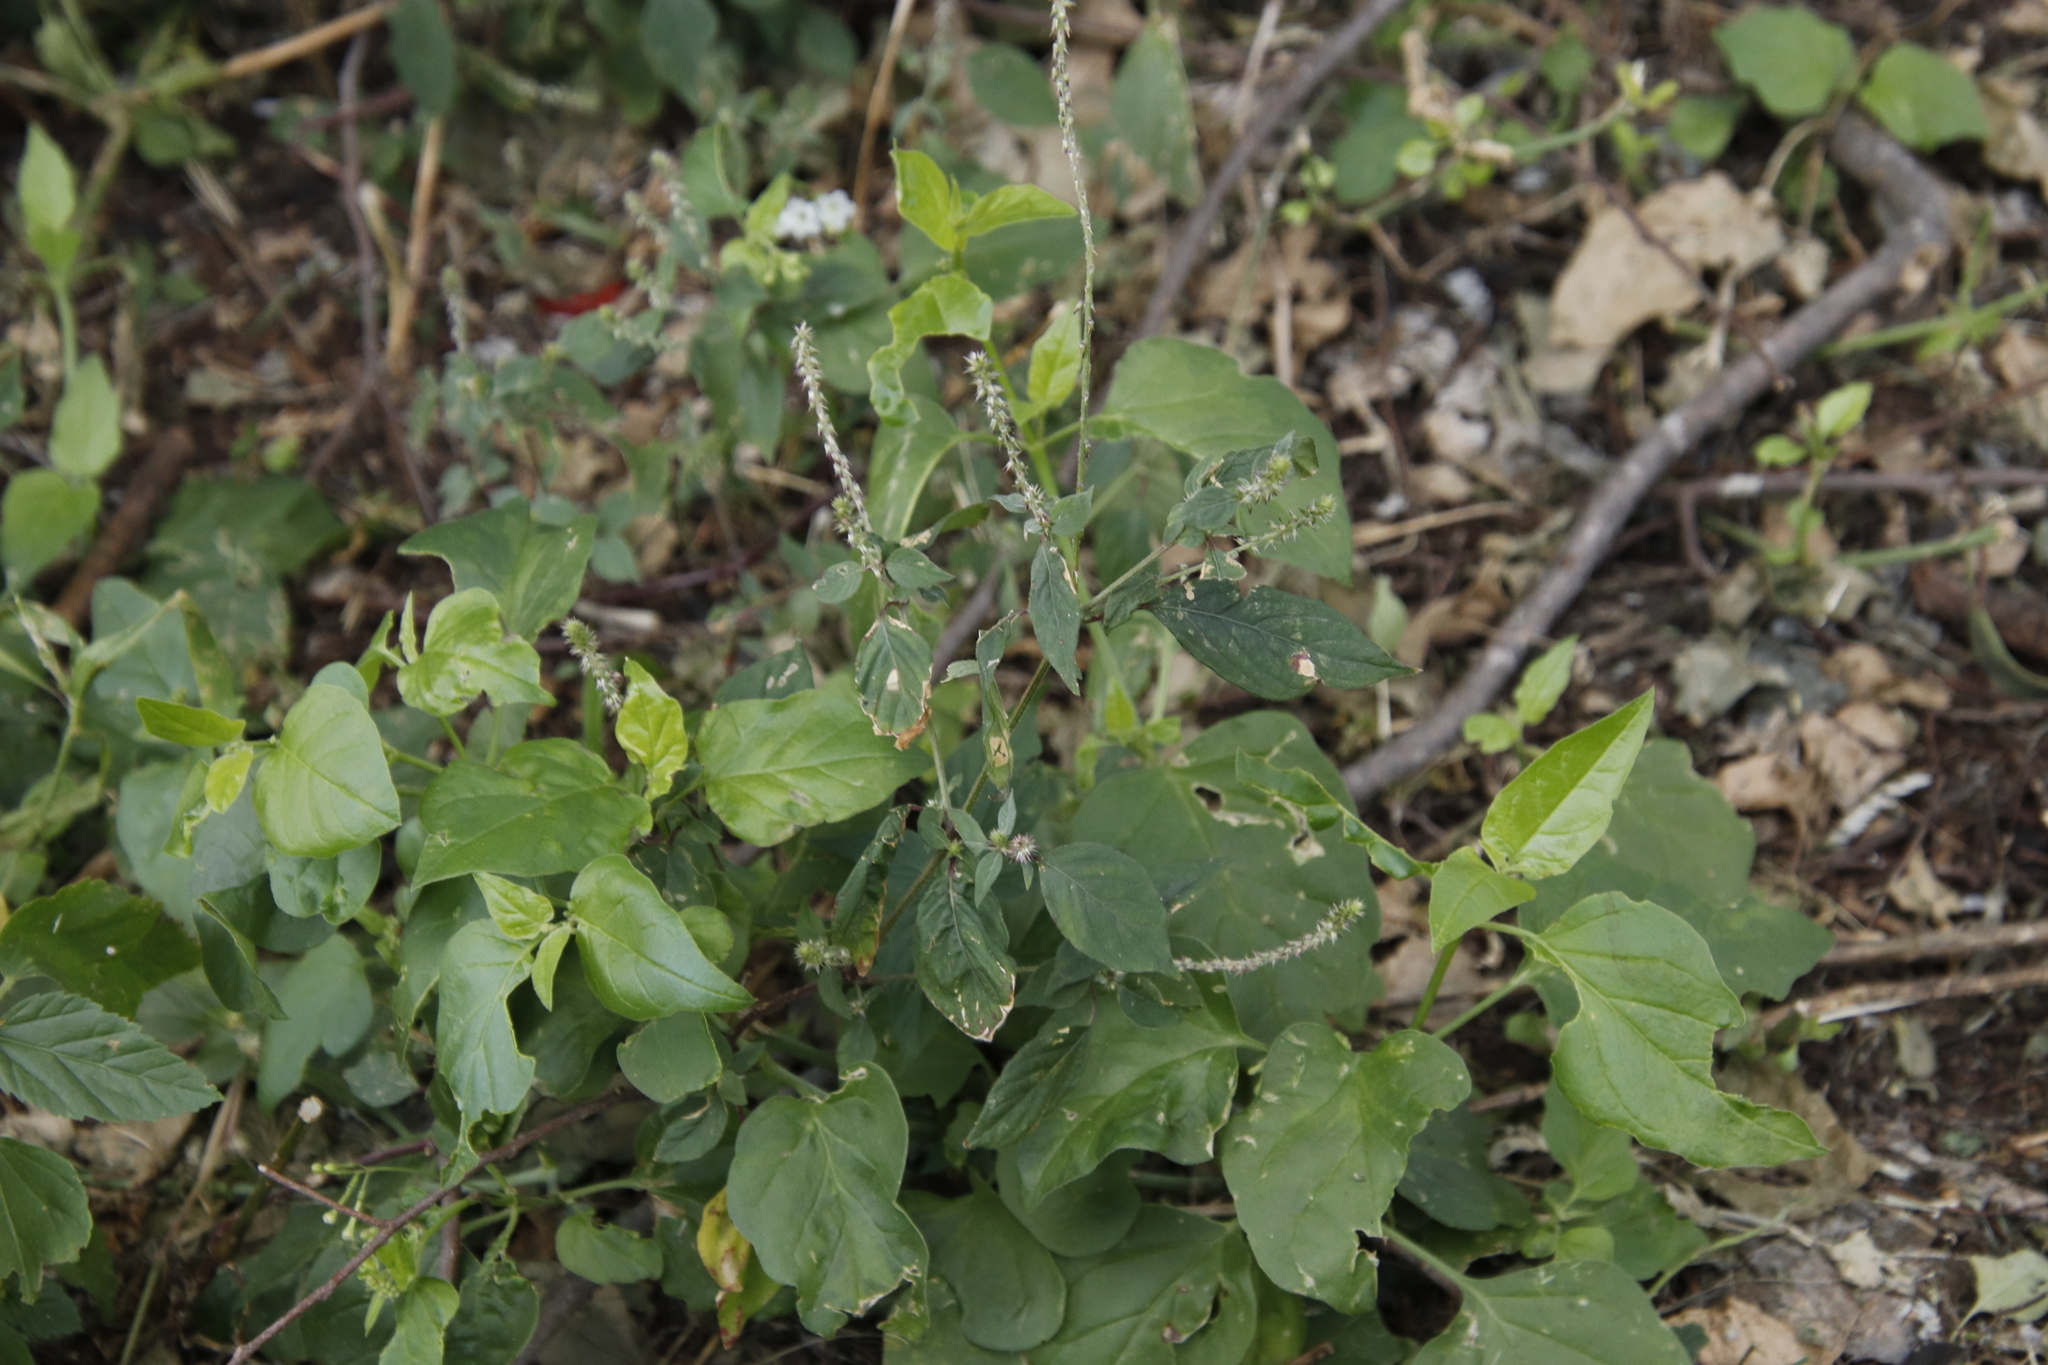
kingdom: Plantae
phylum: Tracheophyta
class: Magnoliopsida
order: Caryophyllales
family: Amaranthaceae
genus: Achyranthes
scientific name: Achyranthes aspera
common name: Devil's horsewhip
